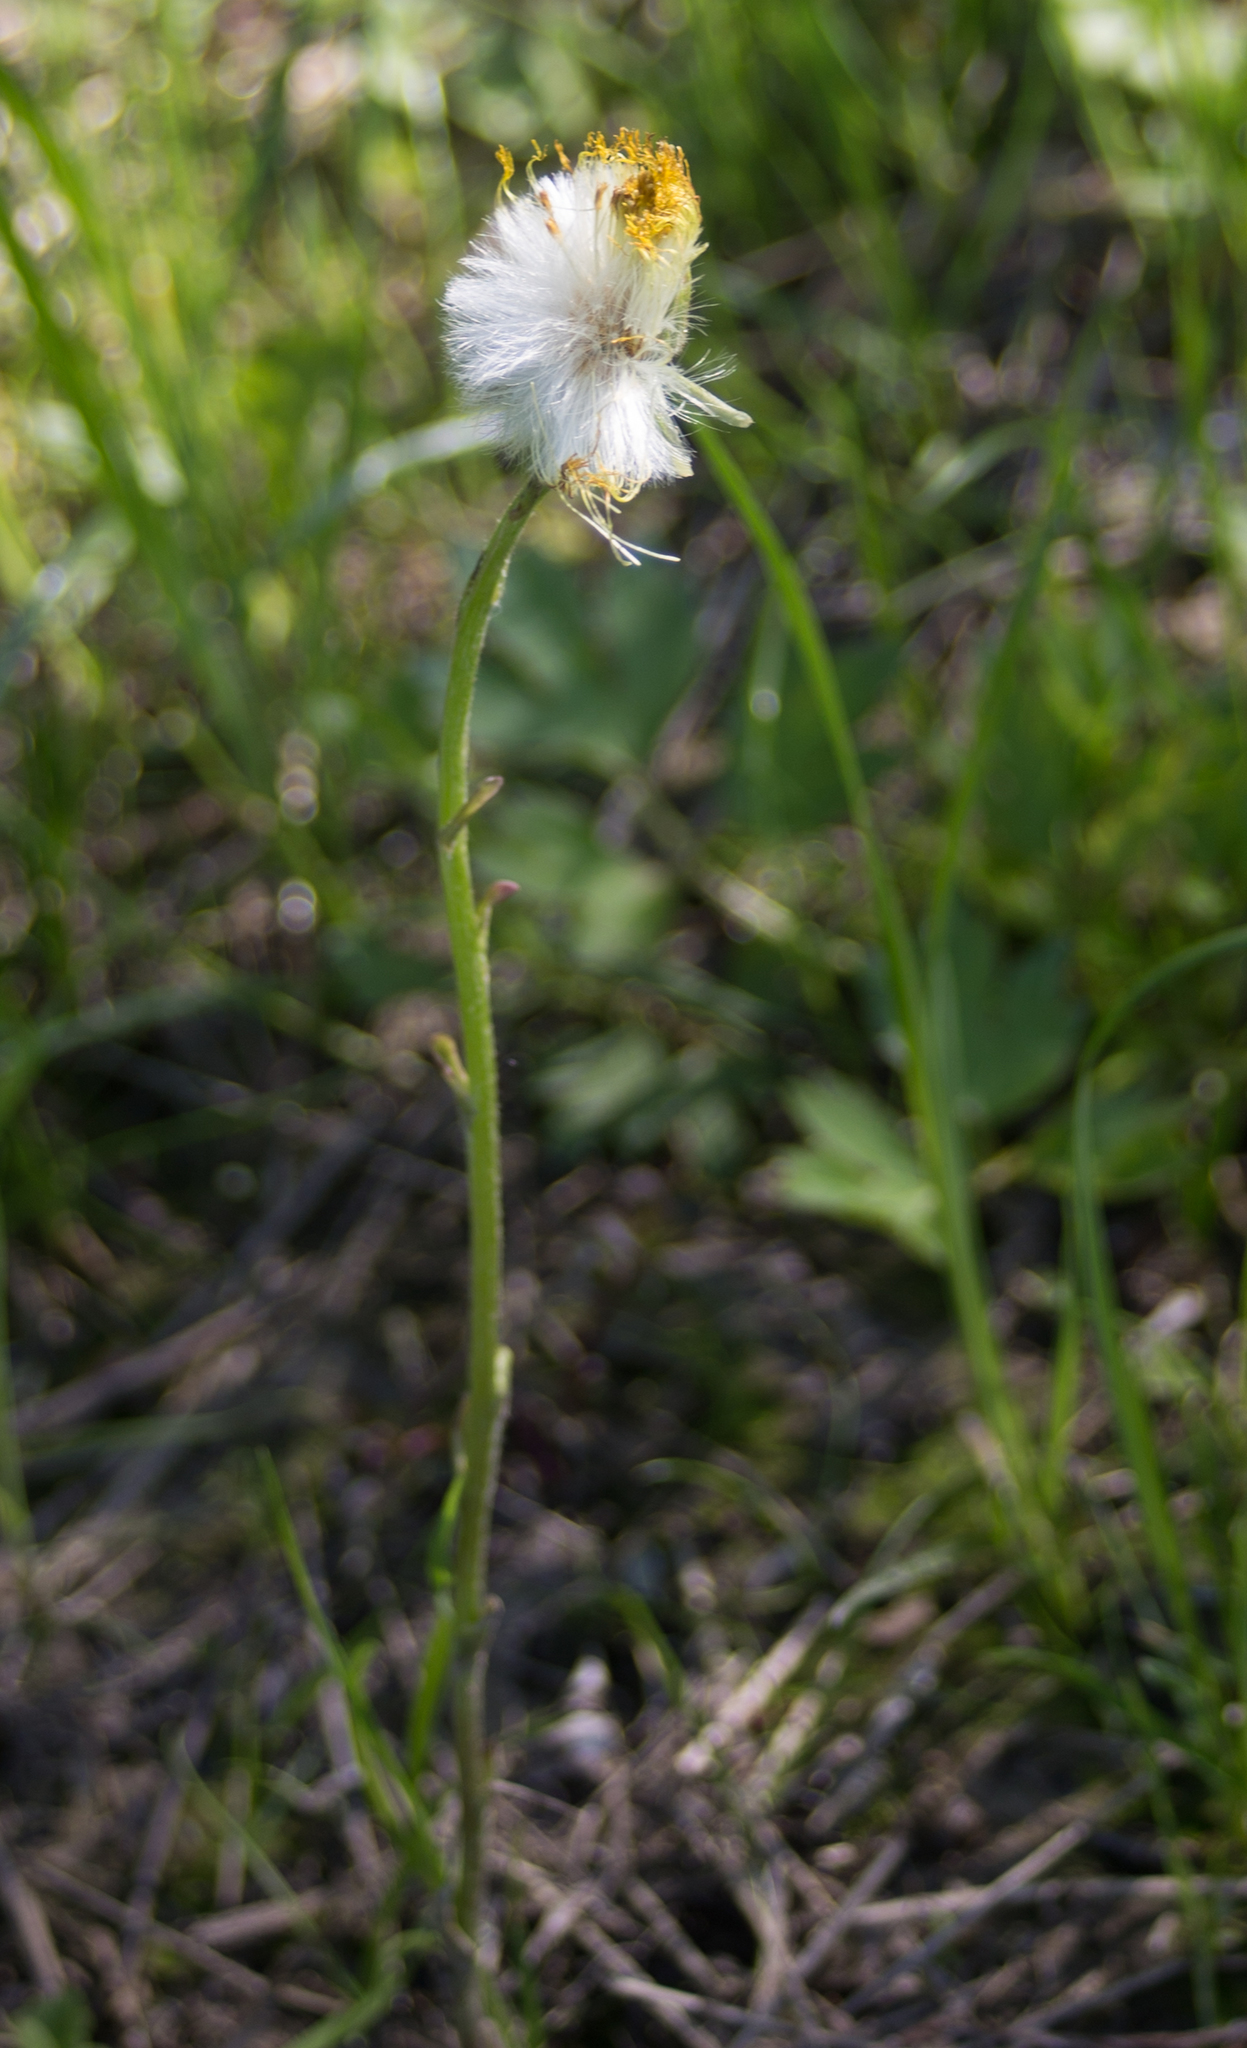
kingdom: Plantae
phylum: Tracheophyta
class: Magnoliopsida
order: Asterales
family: Asteraceae
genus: Tussilago
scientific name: Tussilago farfara
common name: Coltsfoot
